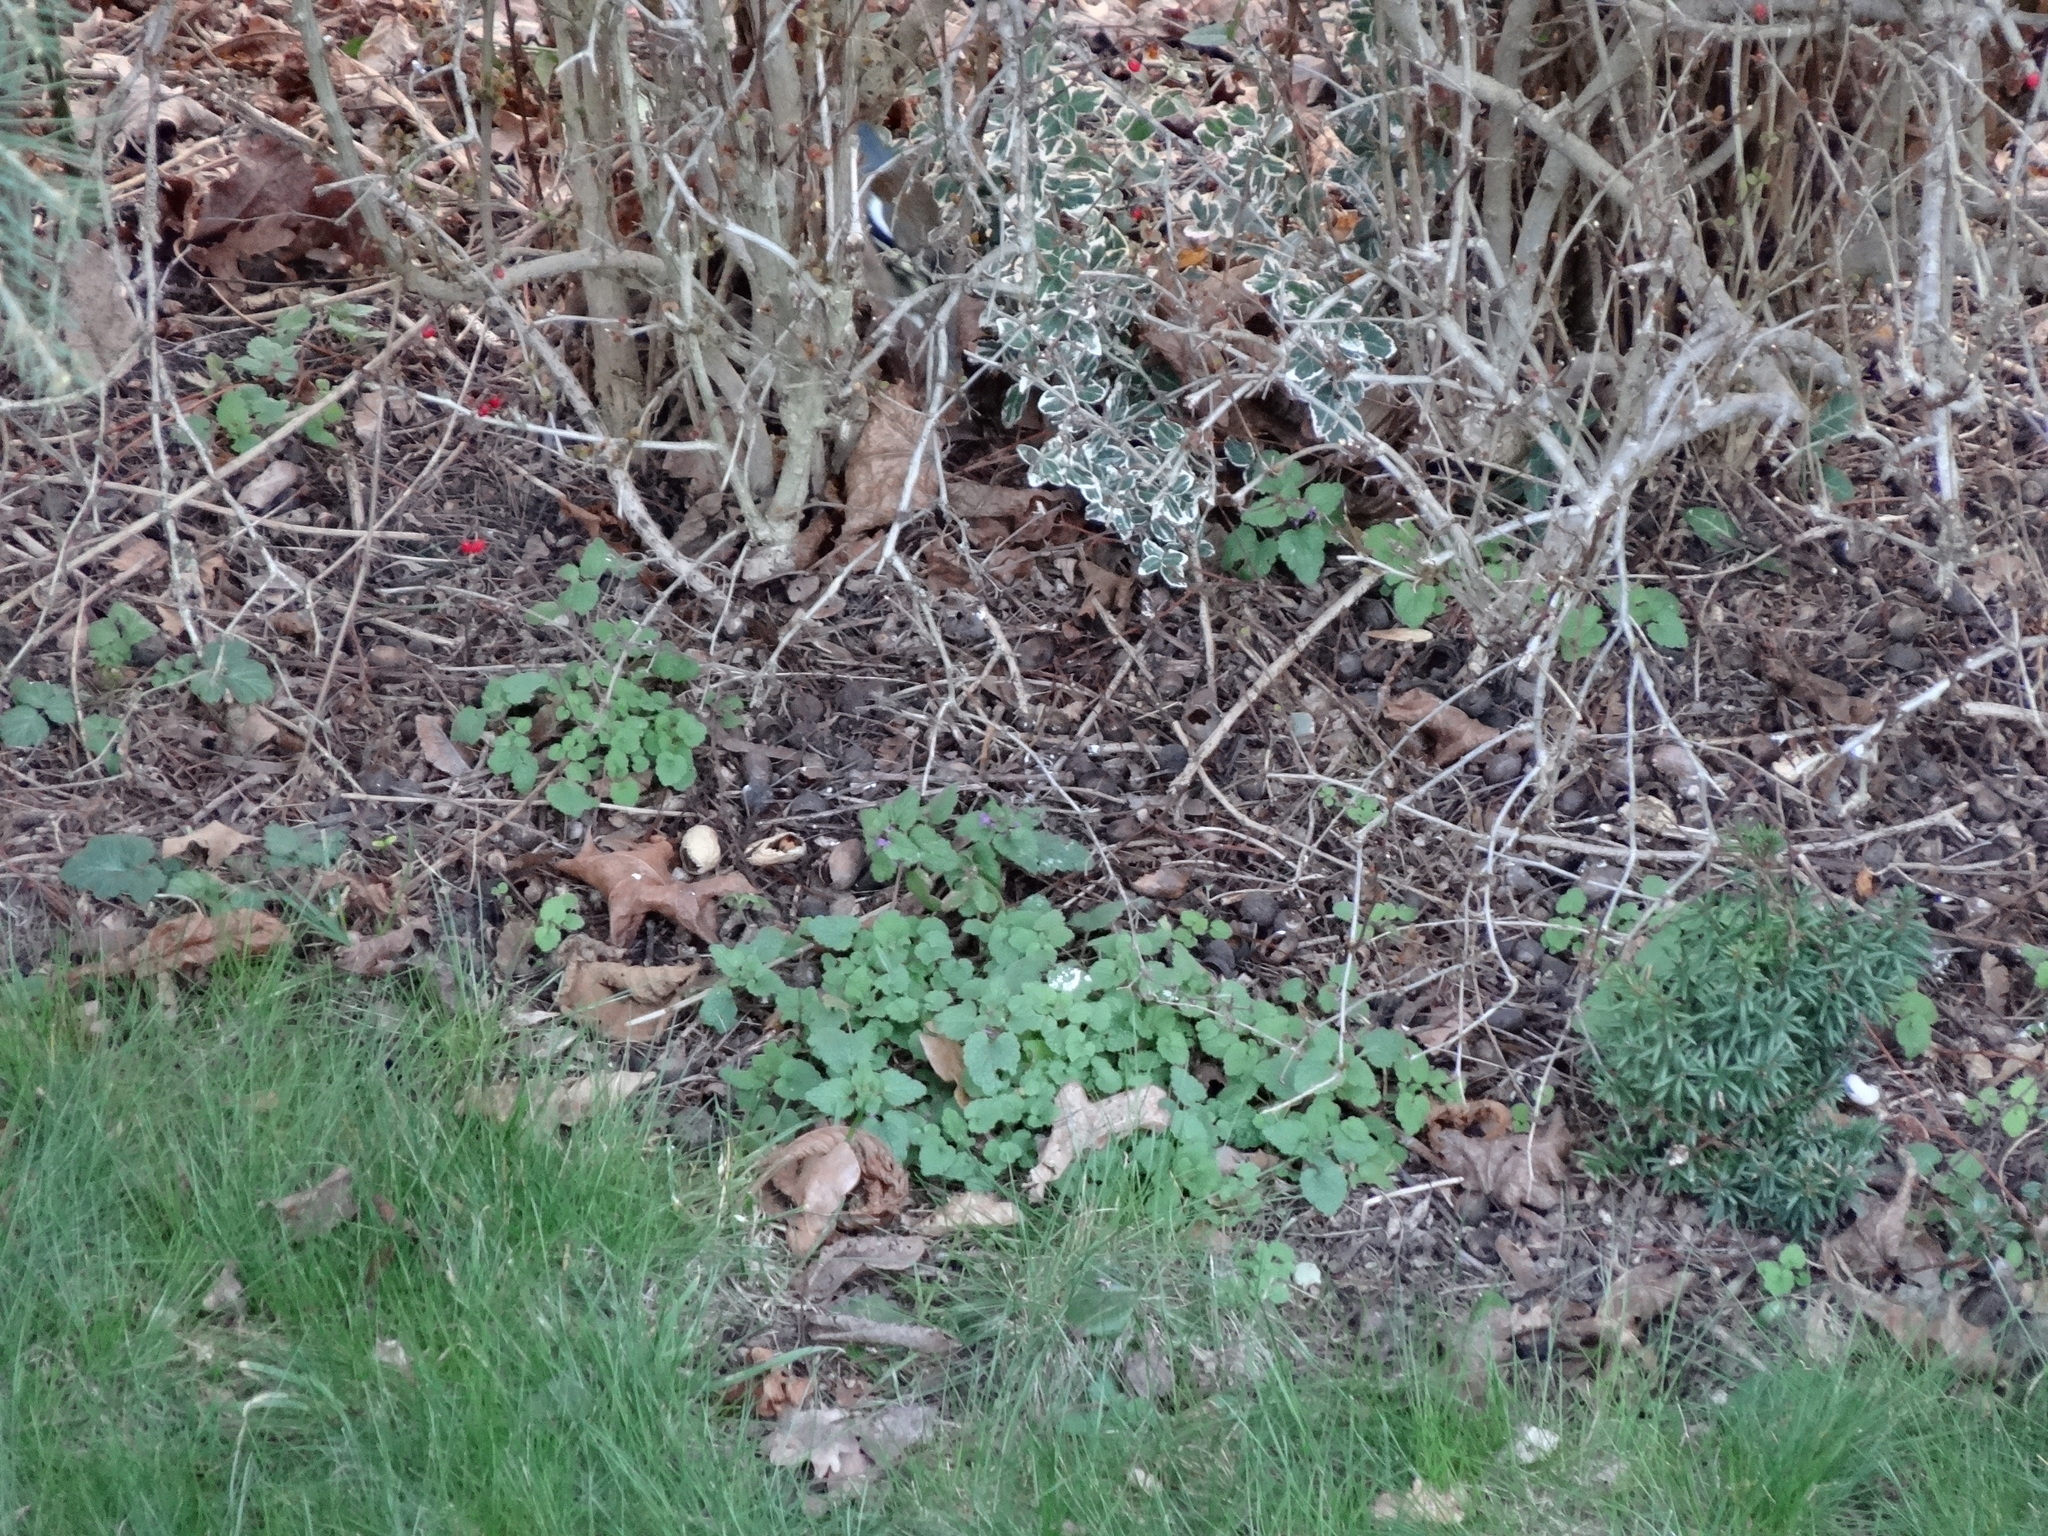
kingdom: Animalia
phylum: Chordata
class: Aves
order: Passeriformes
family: Fringillidae
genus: Fringilla
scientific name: Fringilla coelebs
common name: Common chaffinch
